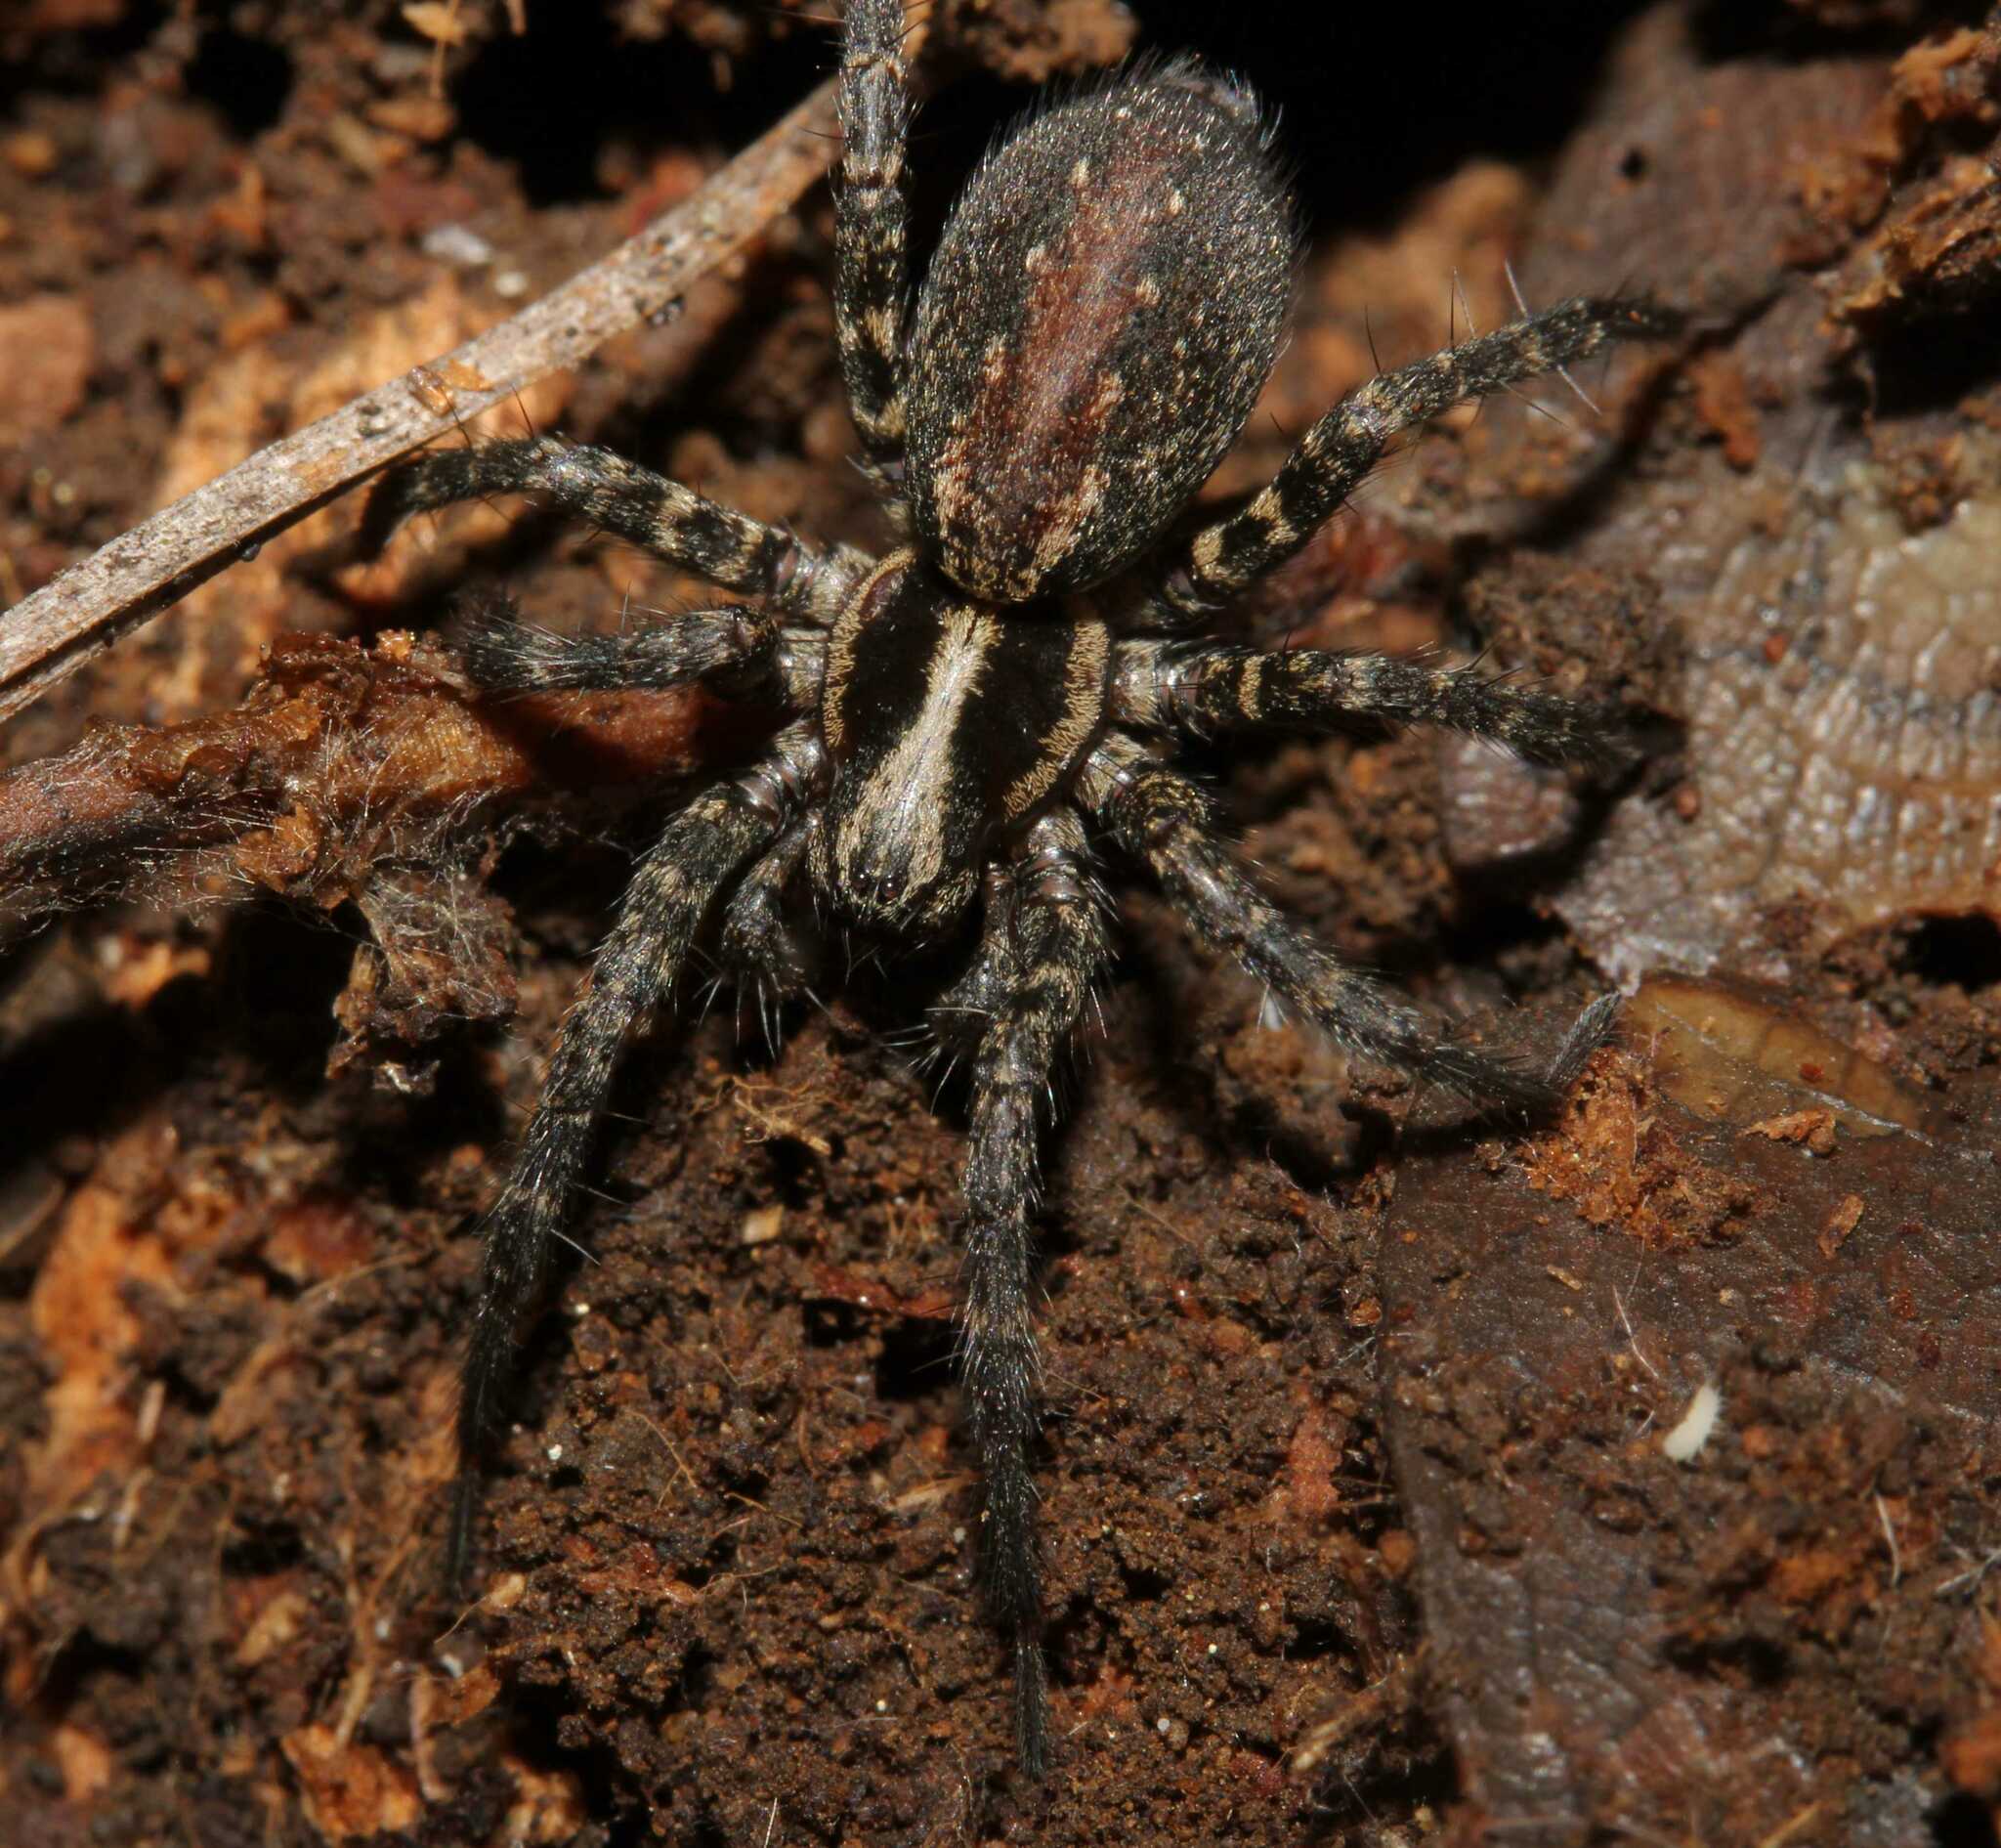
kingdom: Animalia
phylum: Arthropoda
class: Arachnida
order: Araneae
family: Agelenidae
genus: Hololena
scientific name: Hololena
